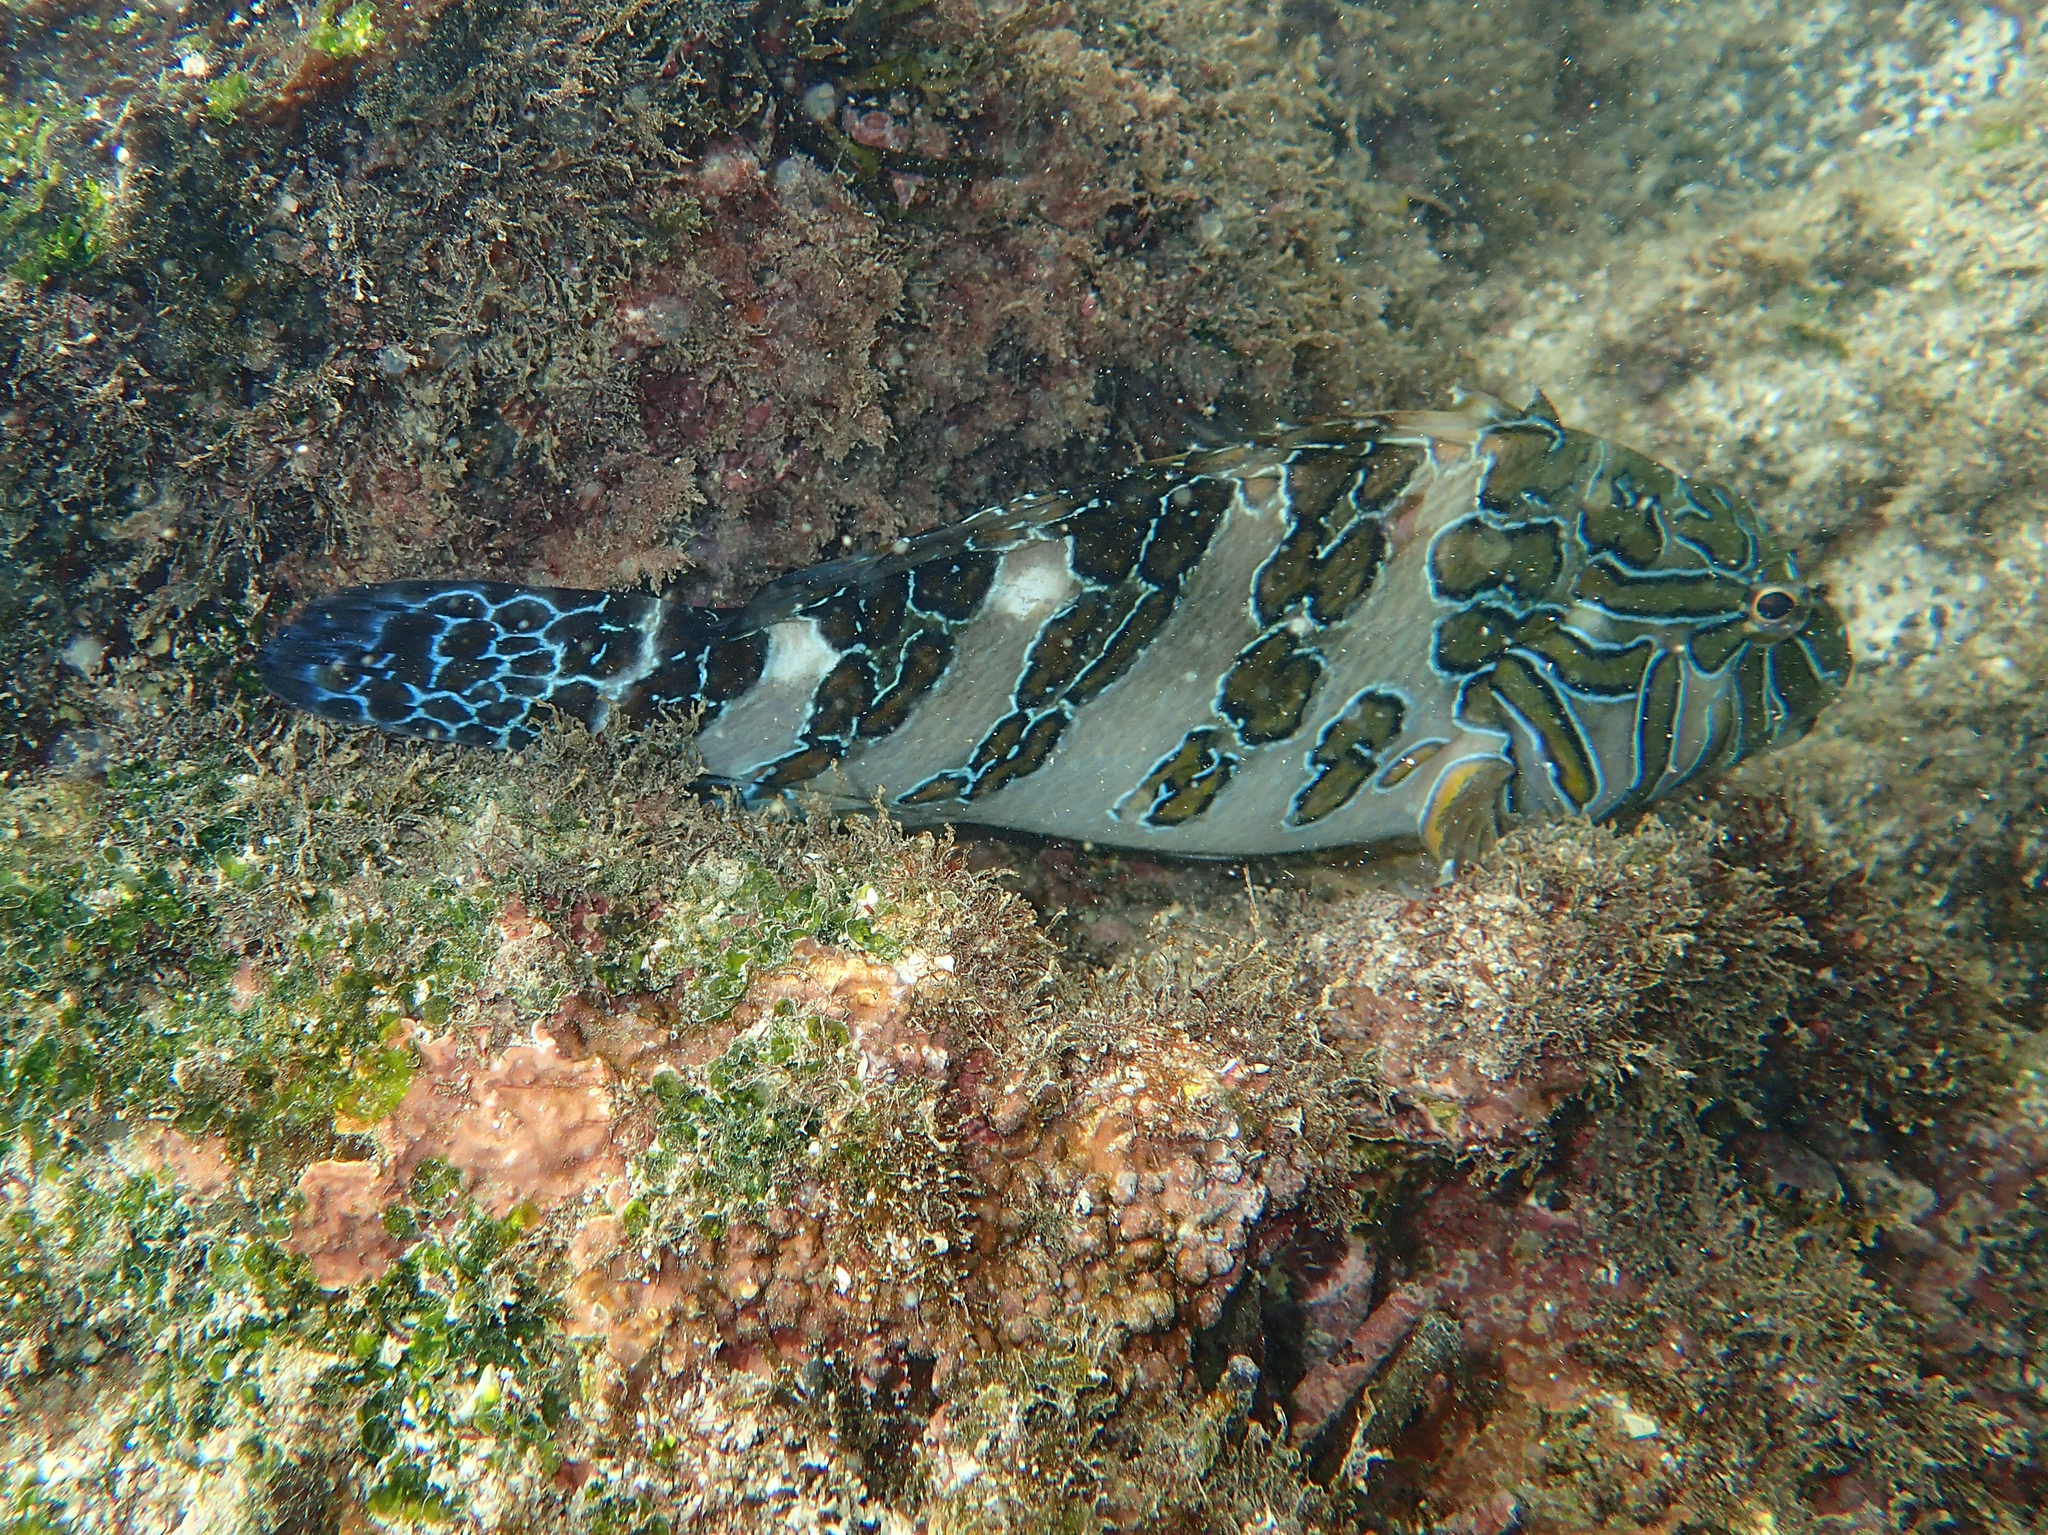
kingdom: Animalia
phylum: Chordata
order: Perciformes
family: Cirrhitidae
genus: Cirrhitus
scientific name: Cirrhitus rivulatus
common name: Giant hawkfish
